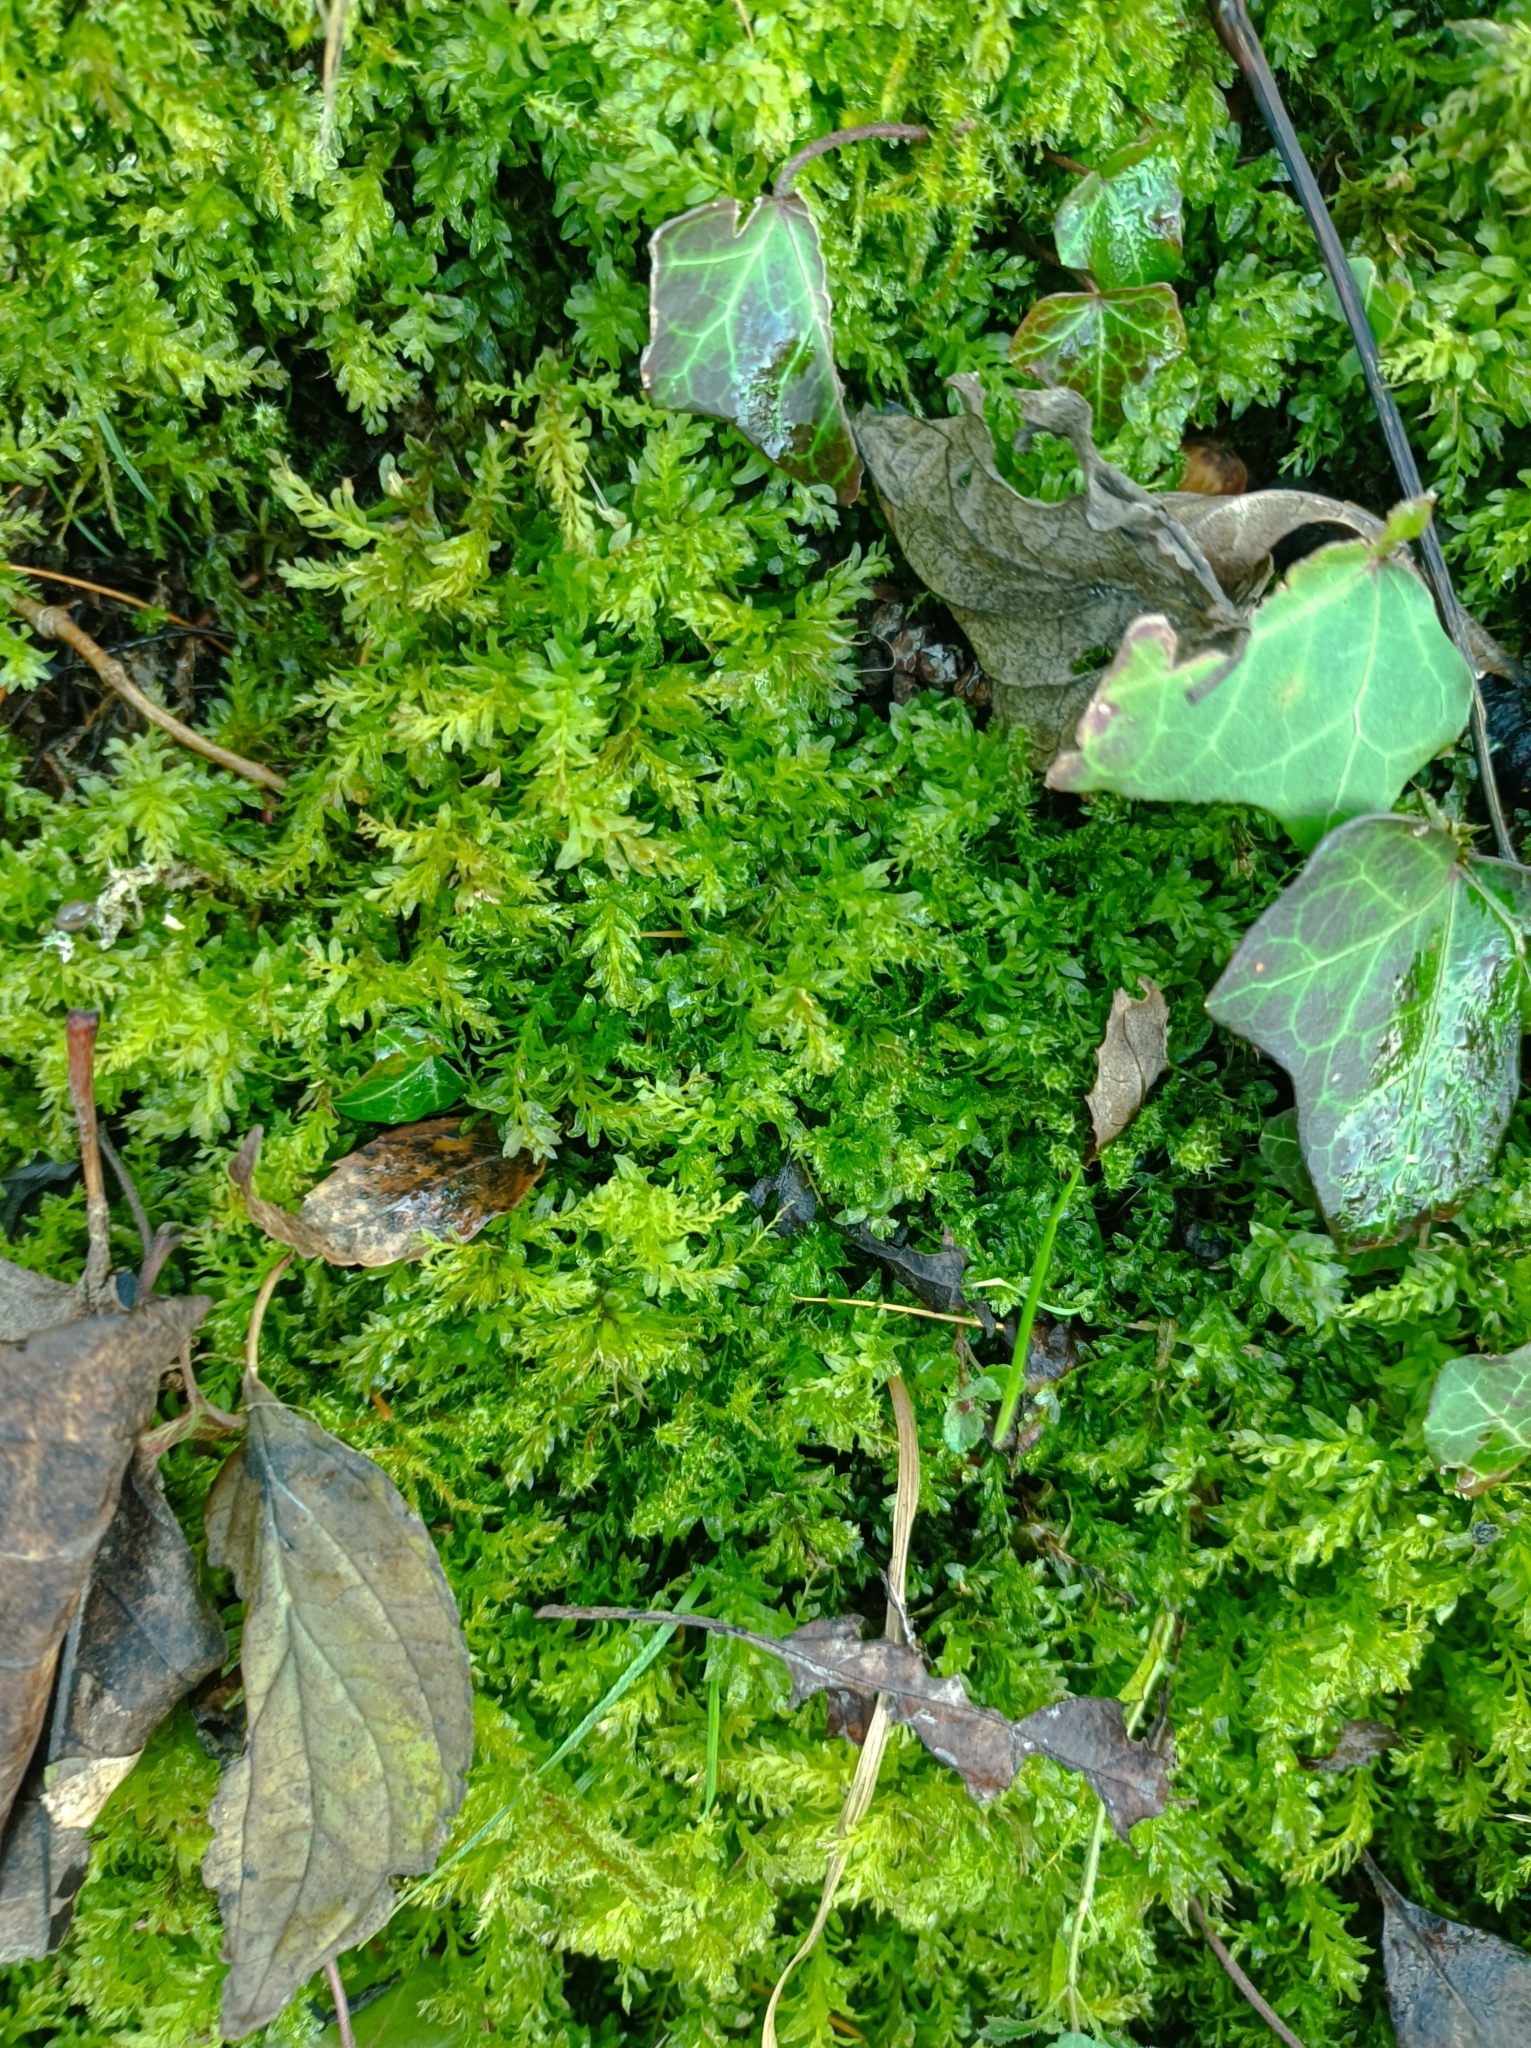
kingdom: Plantae
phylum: Bryophyta
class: Bryopsida
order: Bryales
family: Mniaceae
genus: Plagiomnium
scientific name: Plagiomnium undulatum
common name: Hart's-tongue thyme-moss
